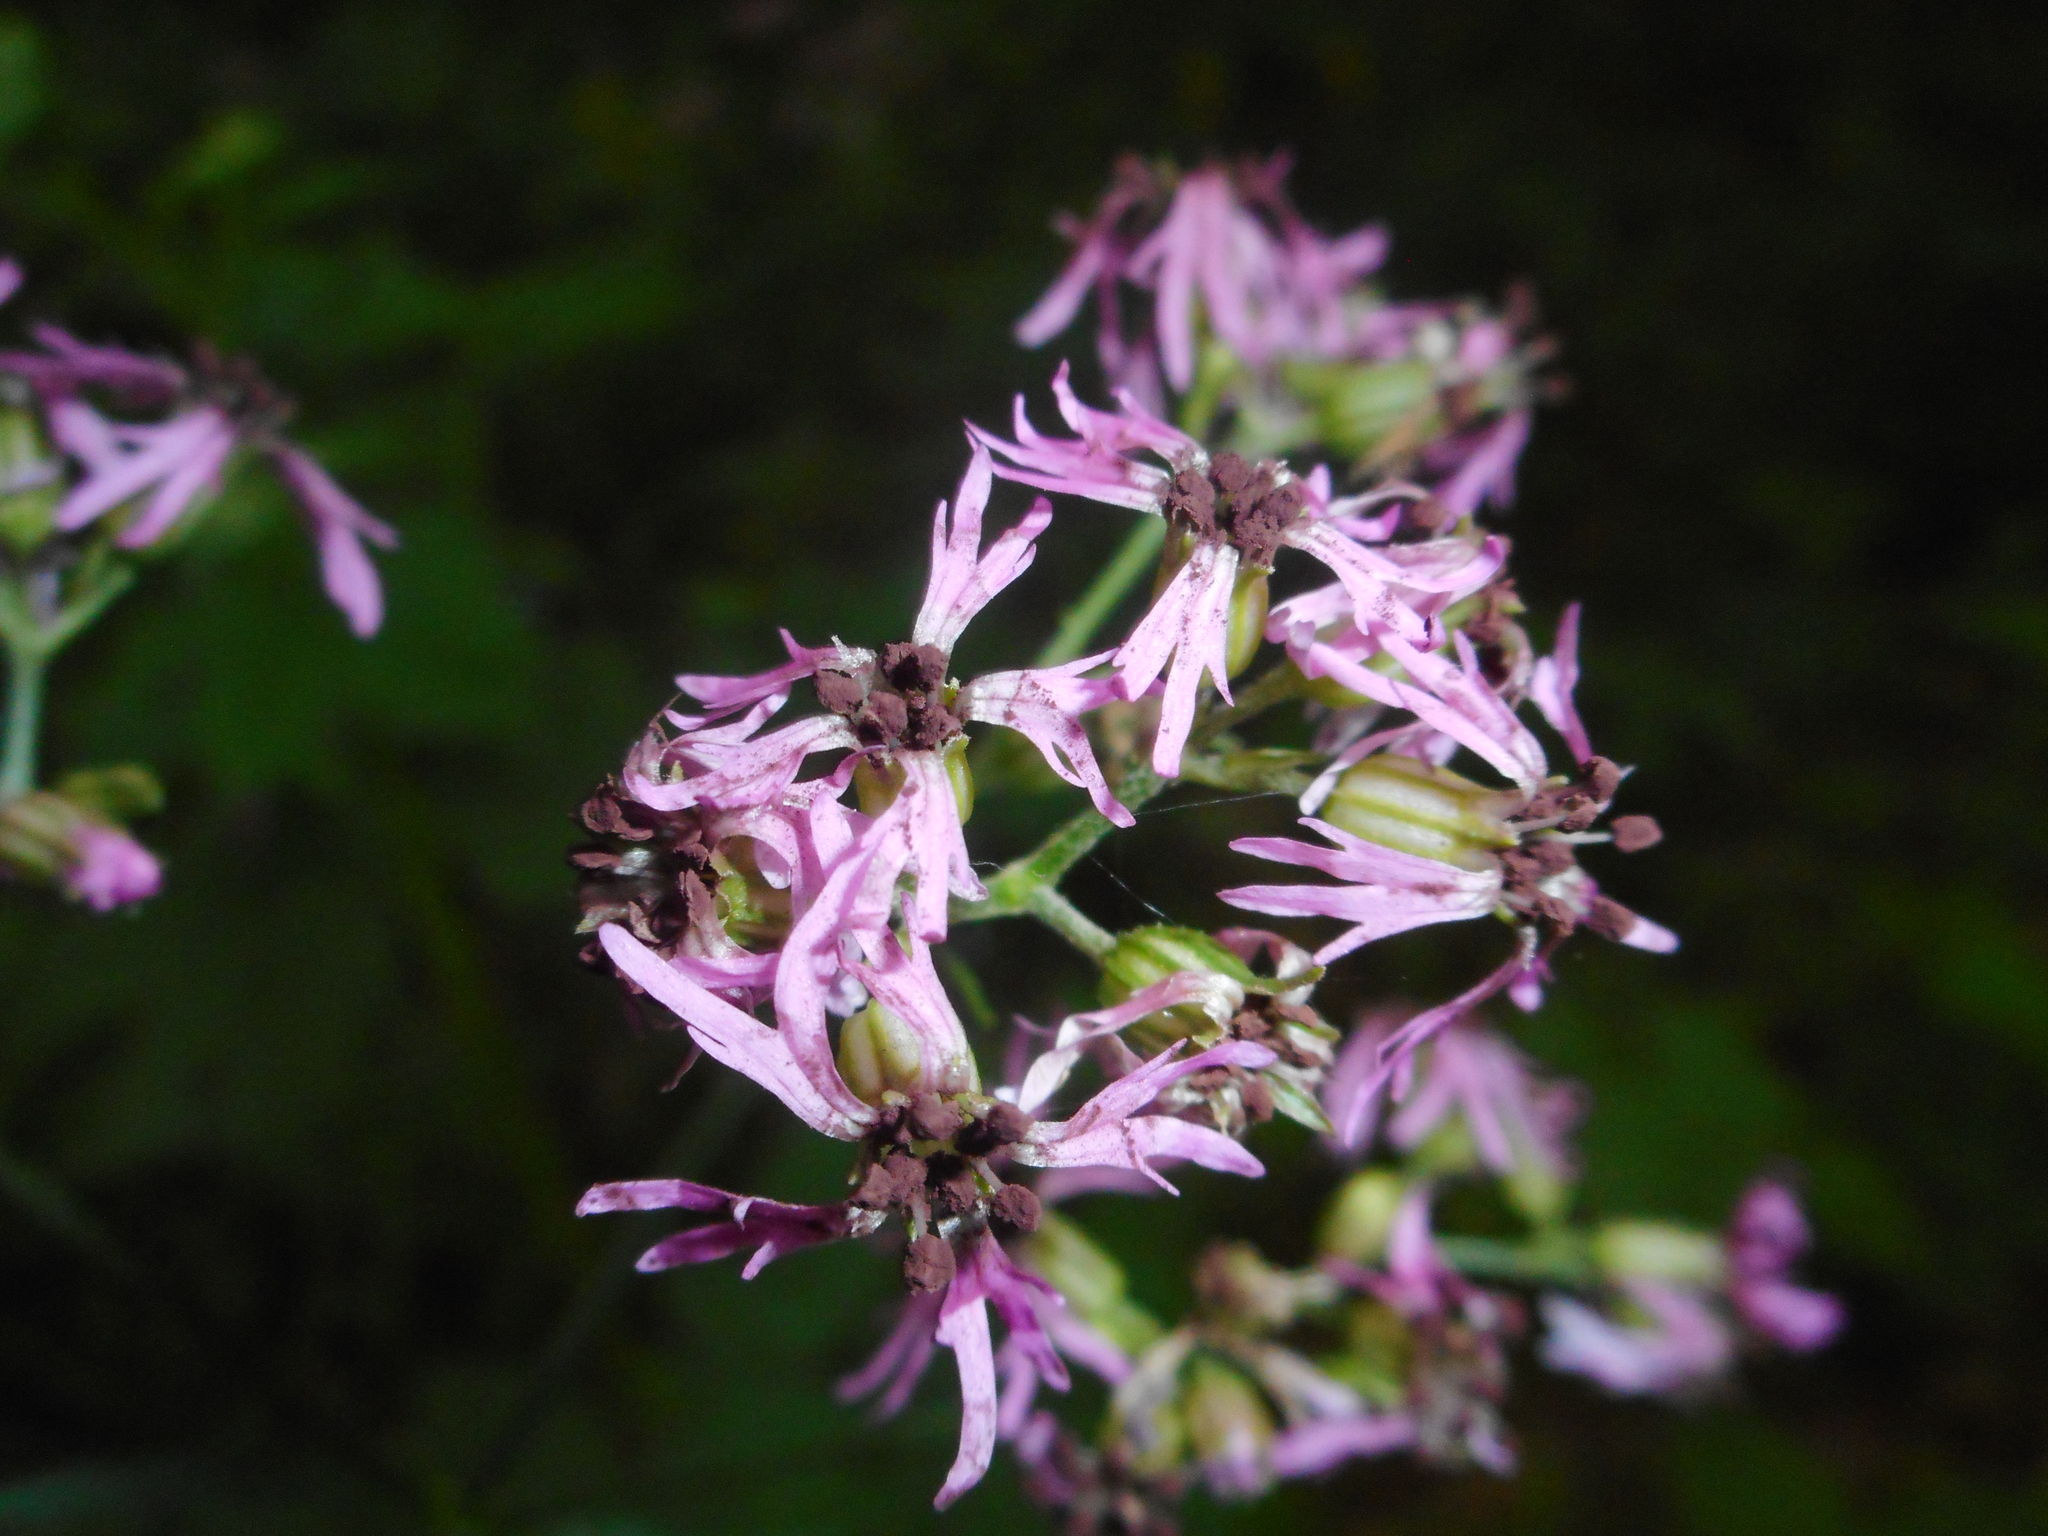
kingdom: Fungi
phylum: Basidiomycota
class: Microbotryomycetes
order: Microbotryales
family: Microbotryaceae
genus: Microbotryum
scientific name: Microbotryum coronariae
